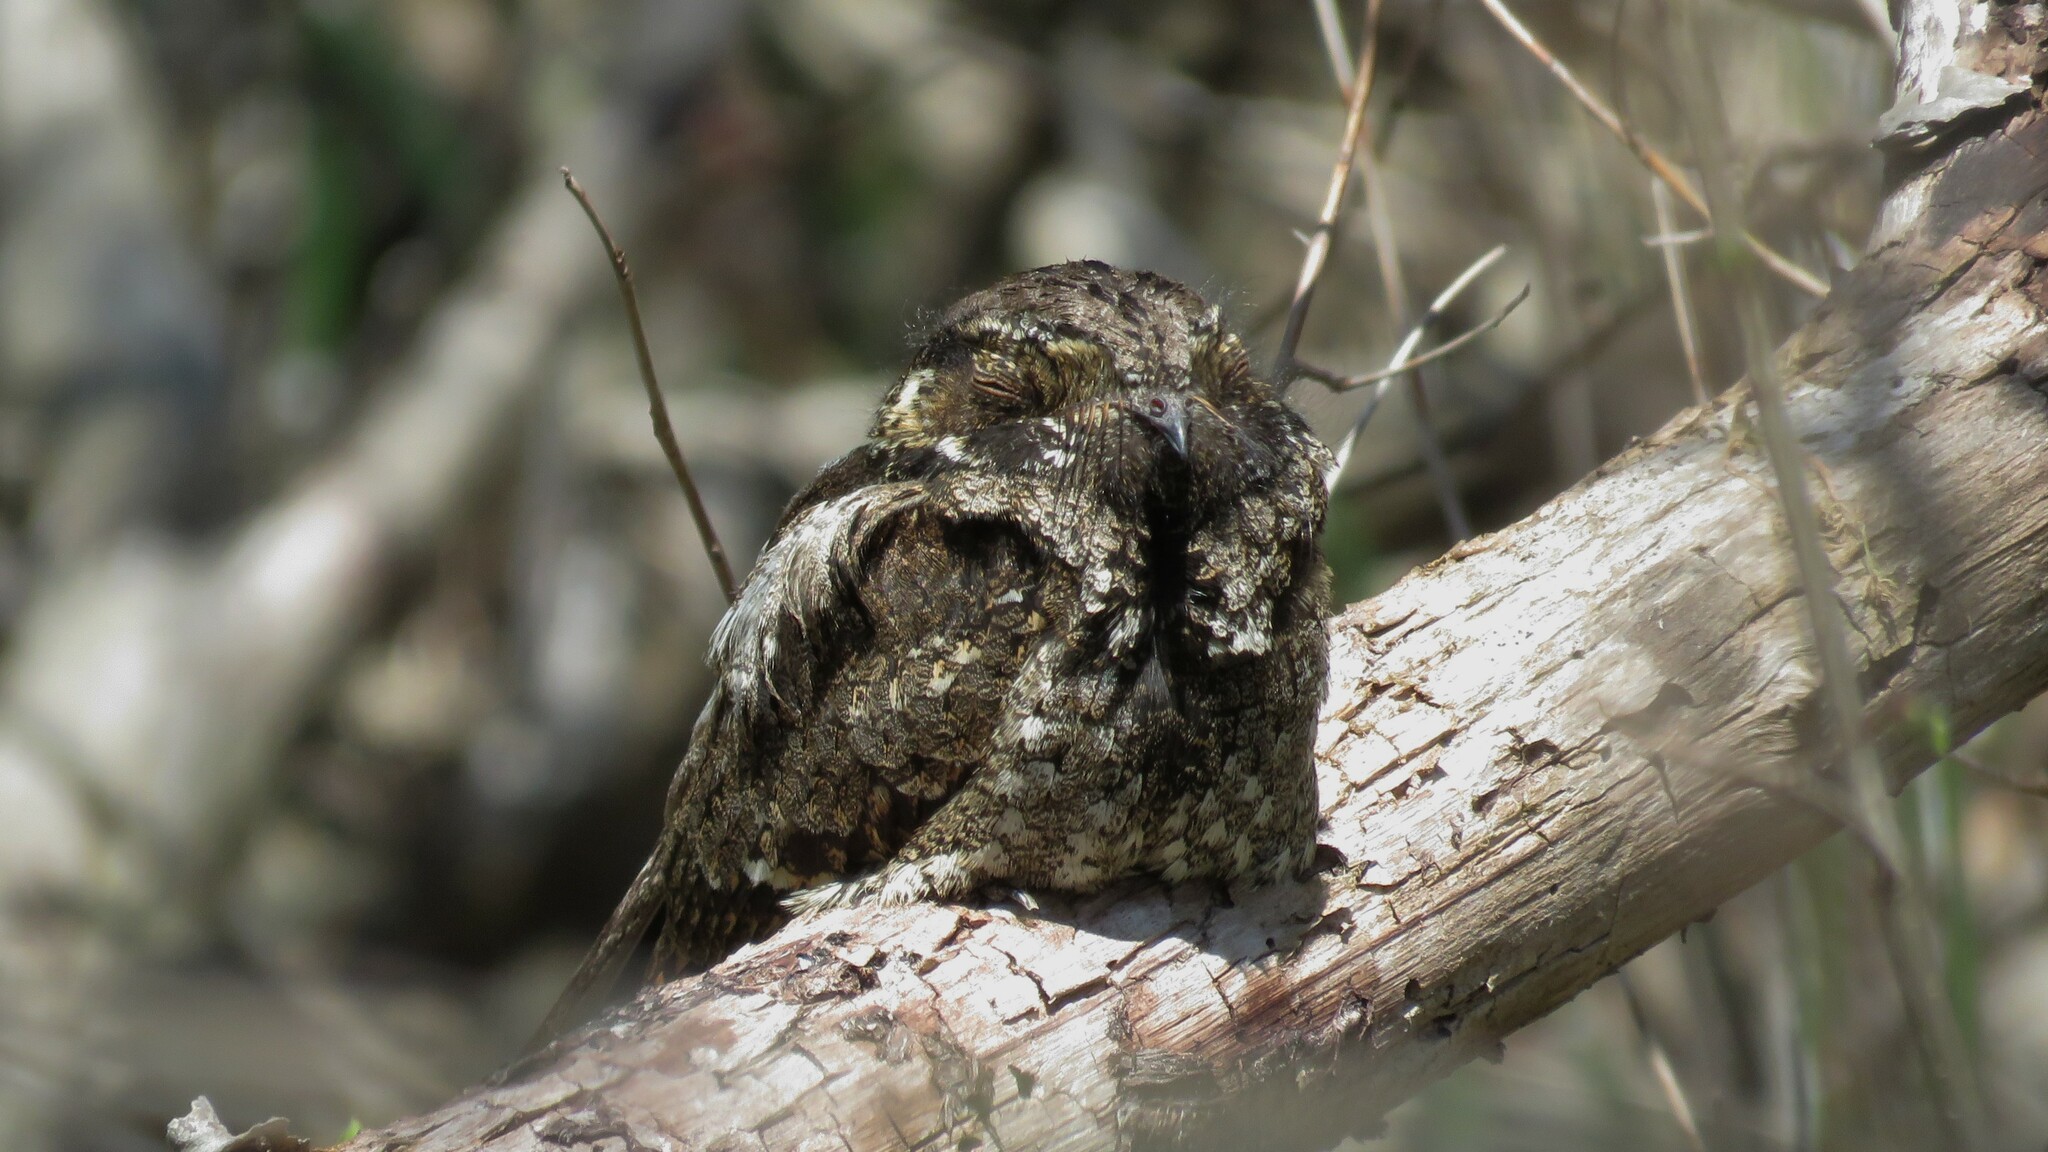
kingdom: Animalia
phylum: Chordata
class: Aves
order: Caprimulgiformes
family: Caprimulgidae
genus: Antrostomus
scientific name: Antrostomus vociferus
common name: Eastern whip-poor-will
